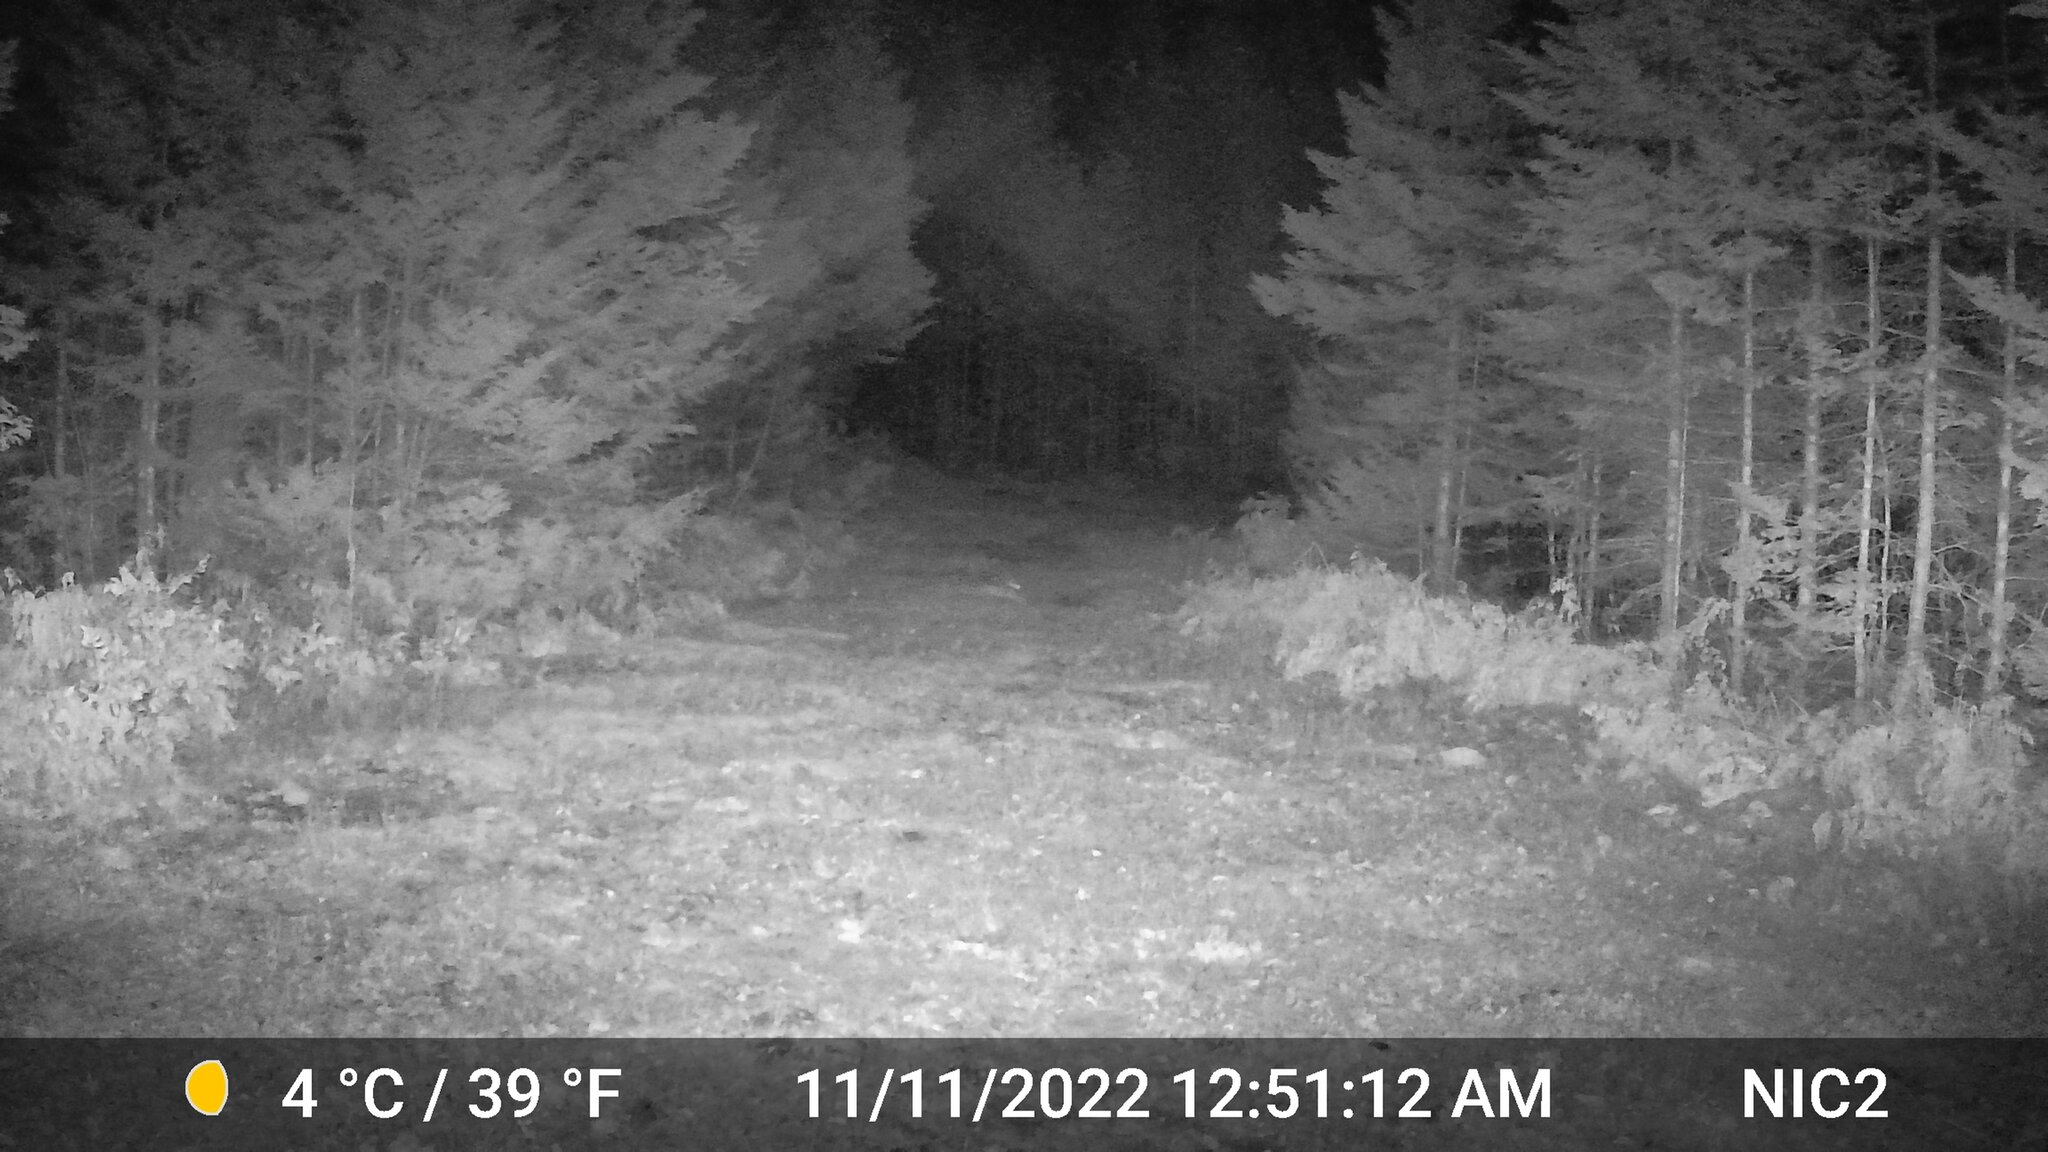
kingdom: Animalia
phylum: Chordata
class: Mammalia
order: Lagomorpha
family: Leporidae
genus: Lepus
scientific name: Lepus americanus
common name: Snowshoe hare
